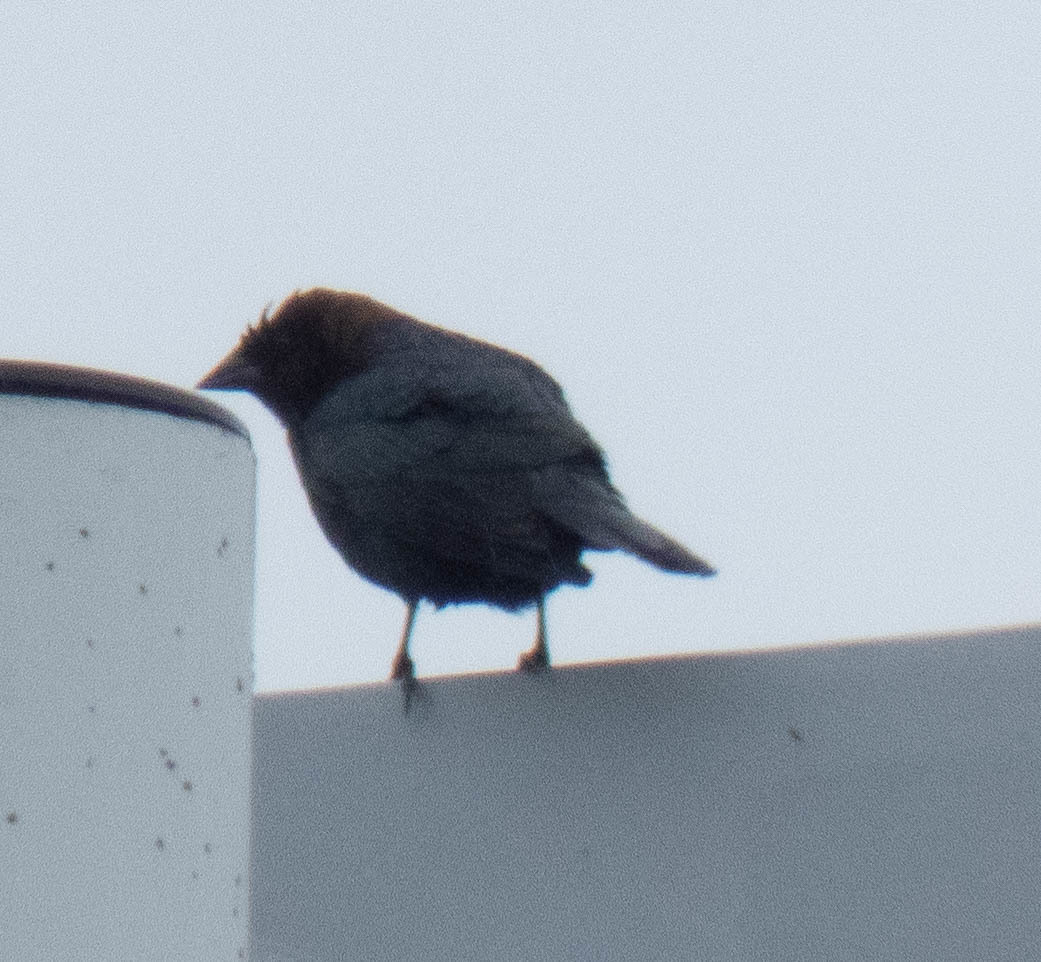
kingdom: Animalia
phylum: Chordata
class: Aves
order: Passeriformes
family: Icteridae
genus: Molothrus
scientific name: Molothrus ater
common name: Brown-headed cowbird
